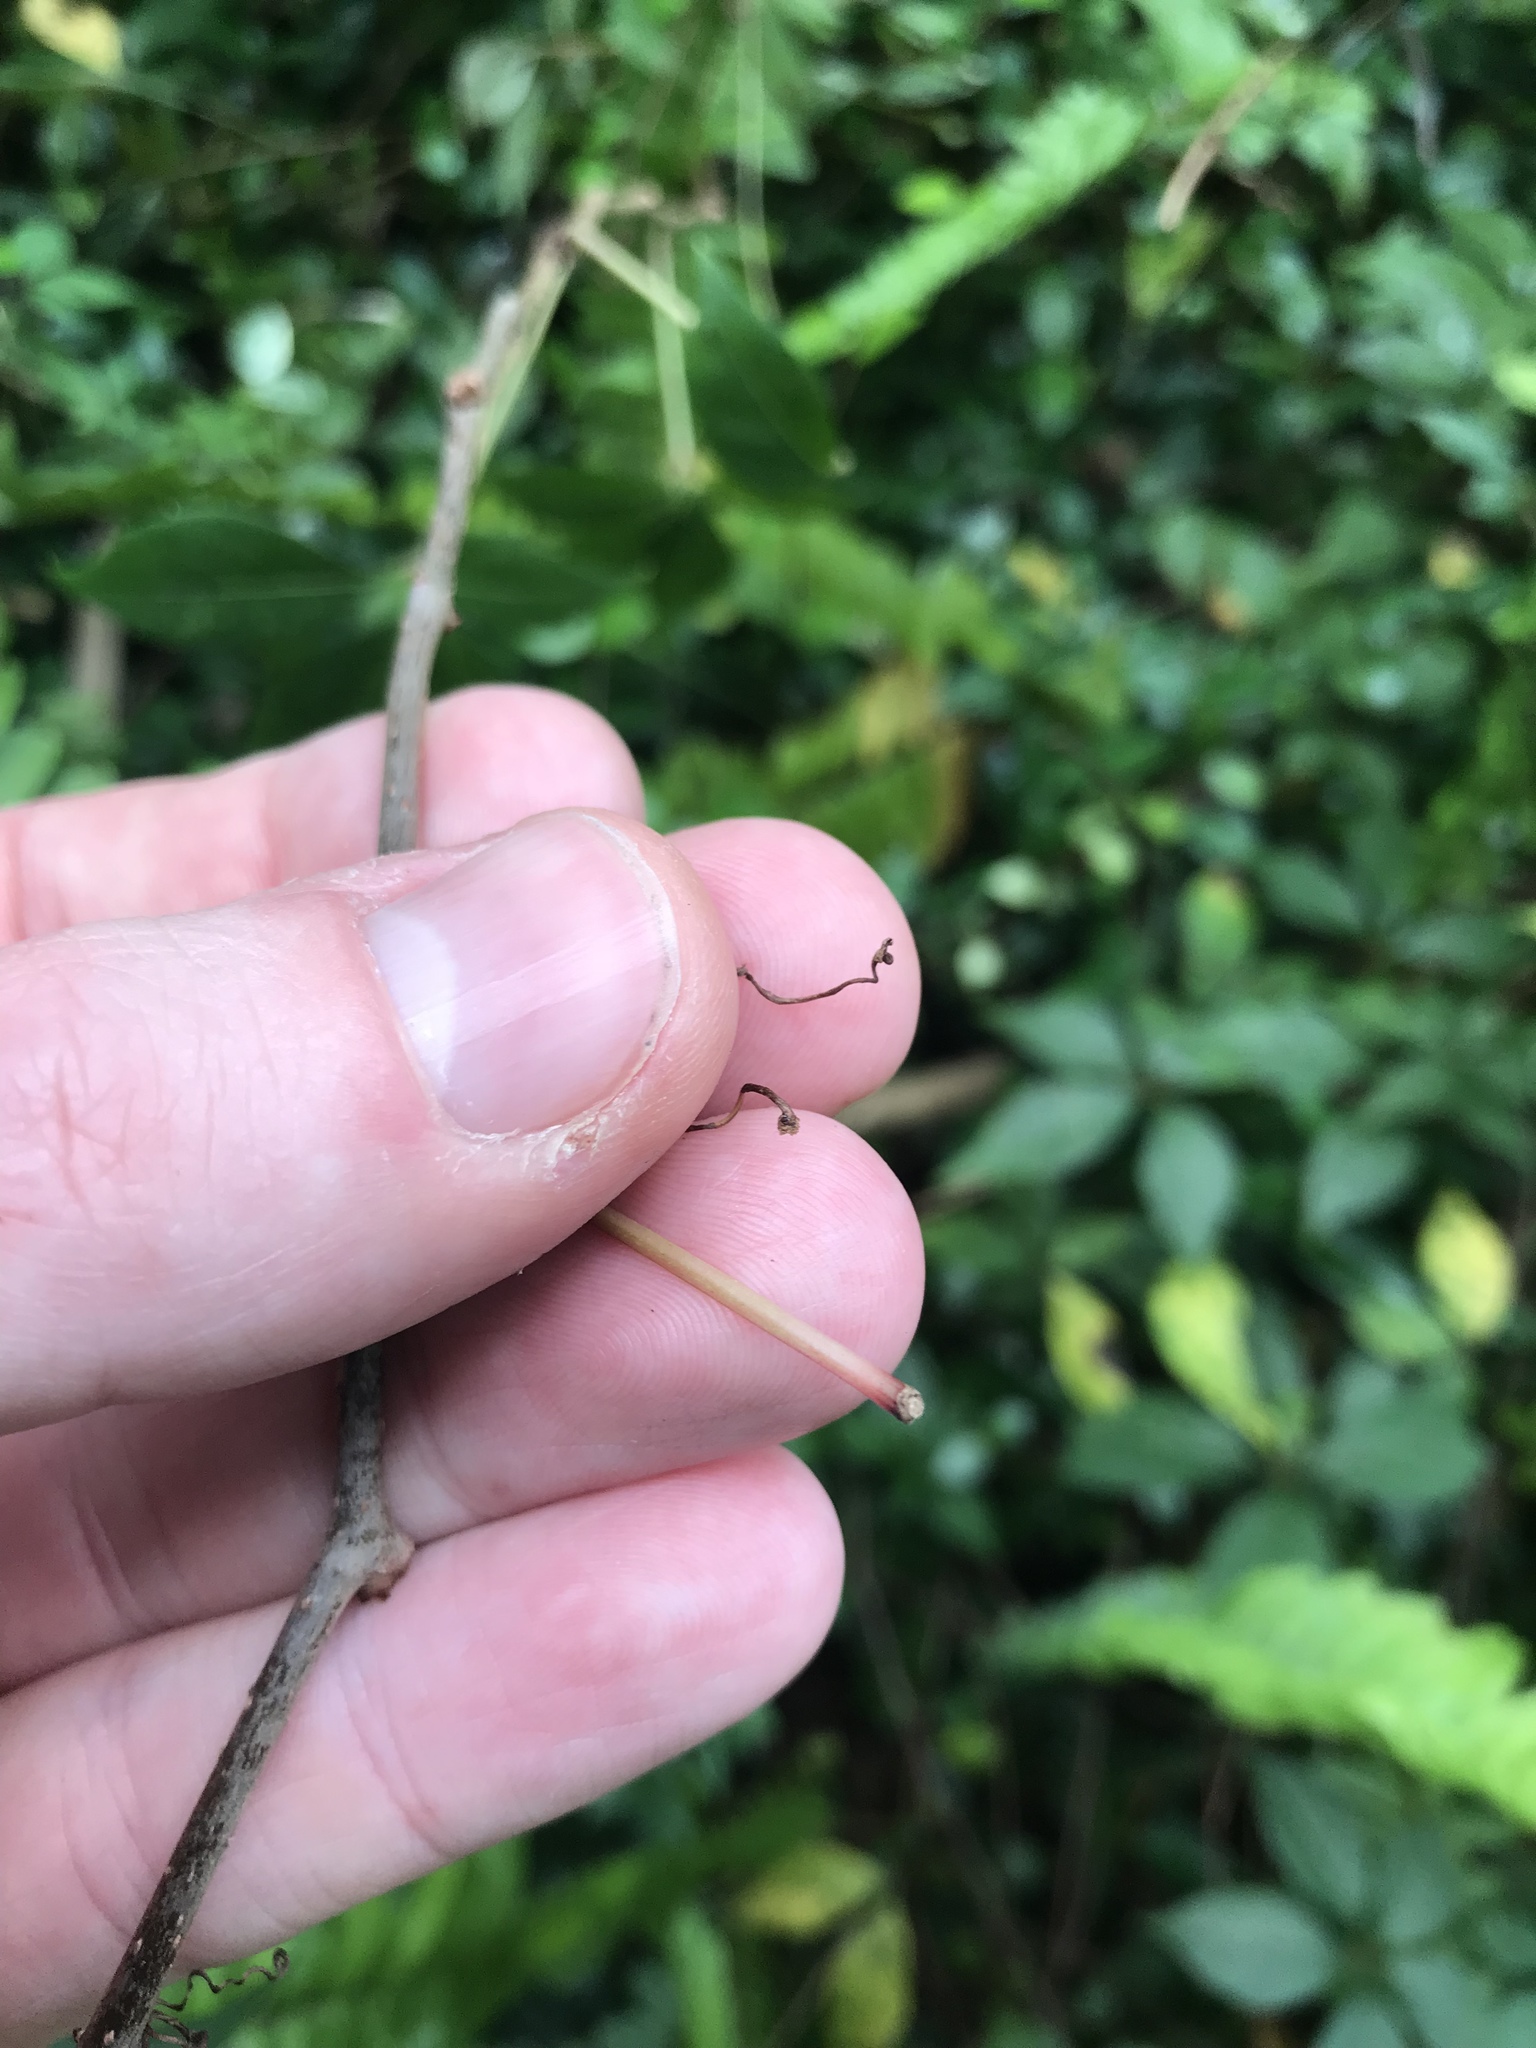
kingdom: Plantae
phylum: Tracheophyta
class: Magnoliopsida
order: Vitales
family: Vitaceae
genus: Parthenocissus
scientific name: Parthenocissus quinquefolia
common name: Virginia-creeper
